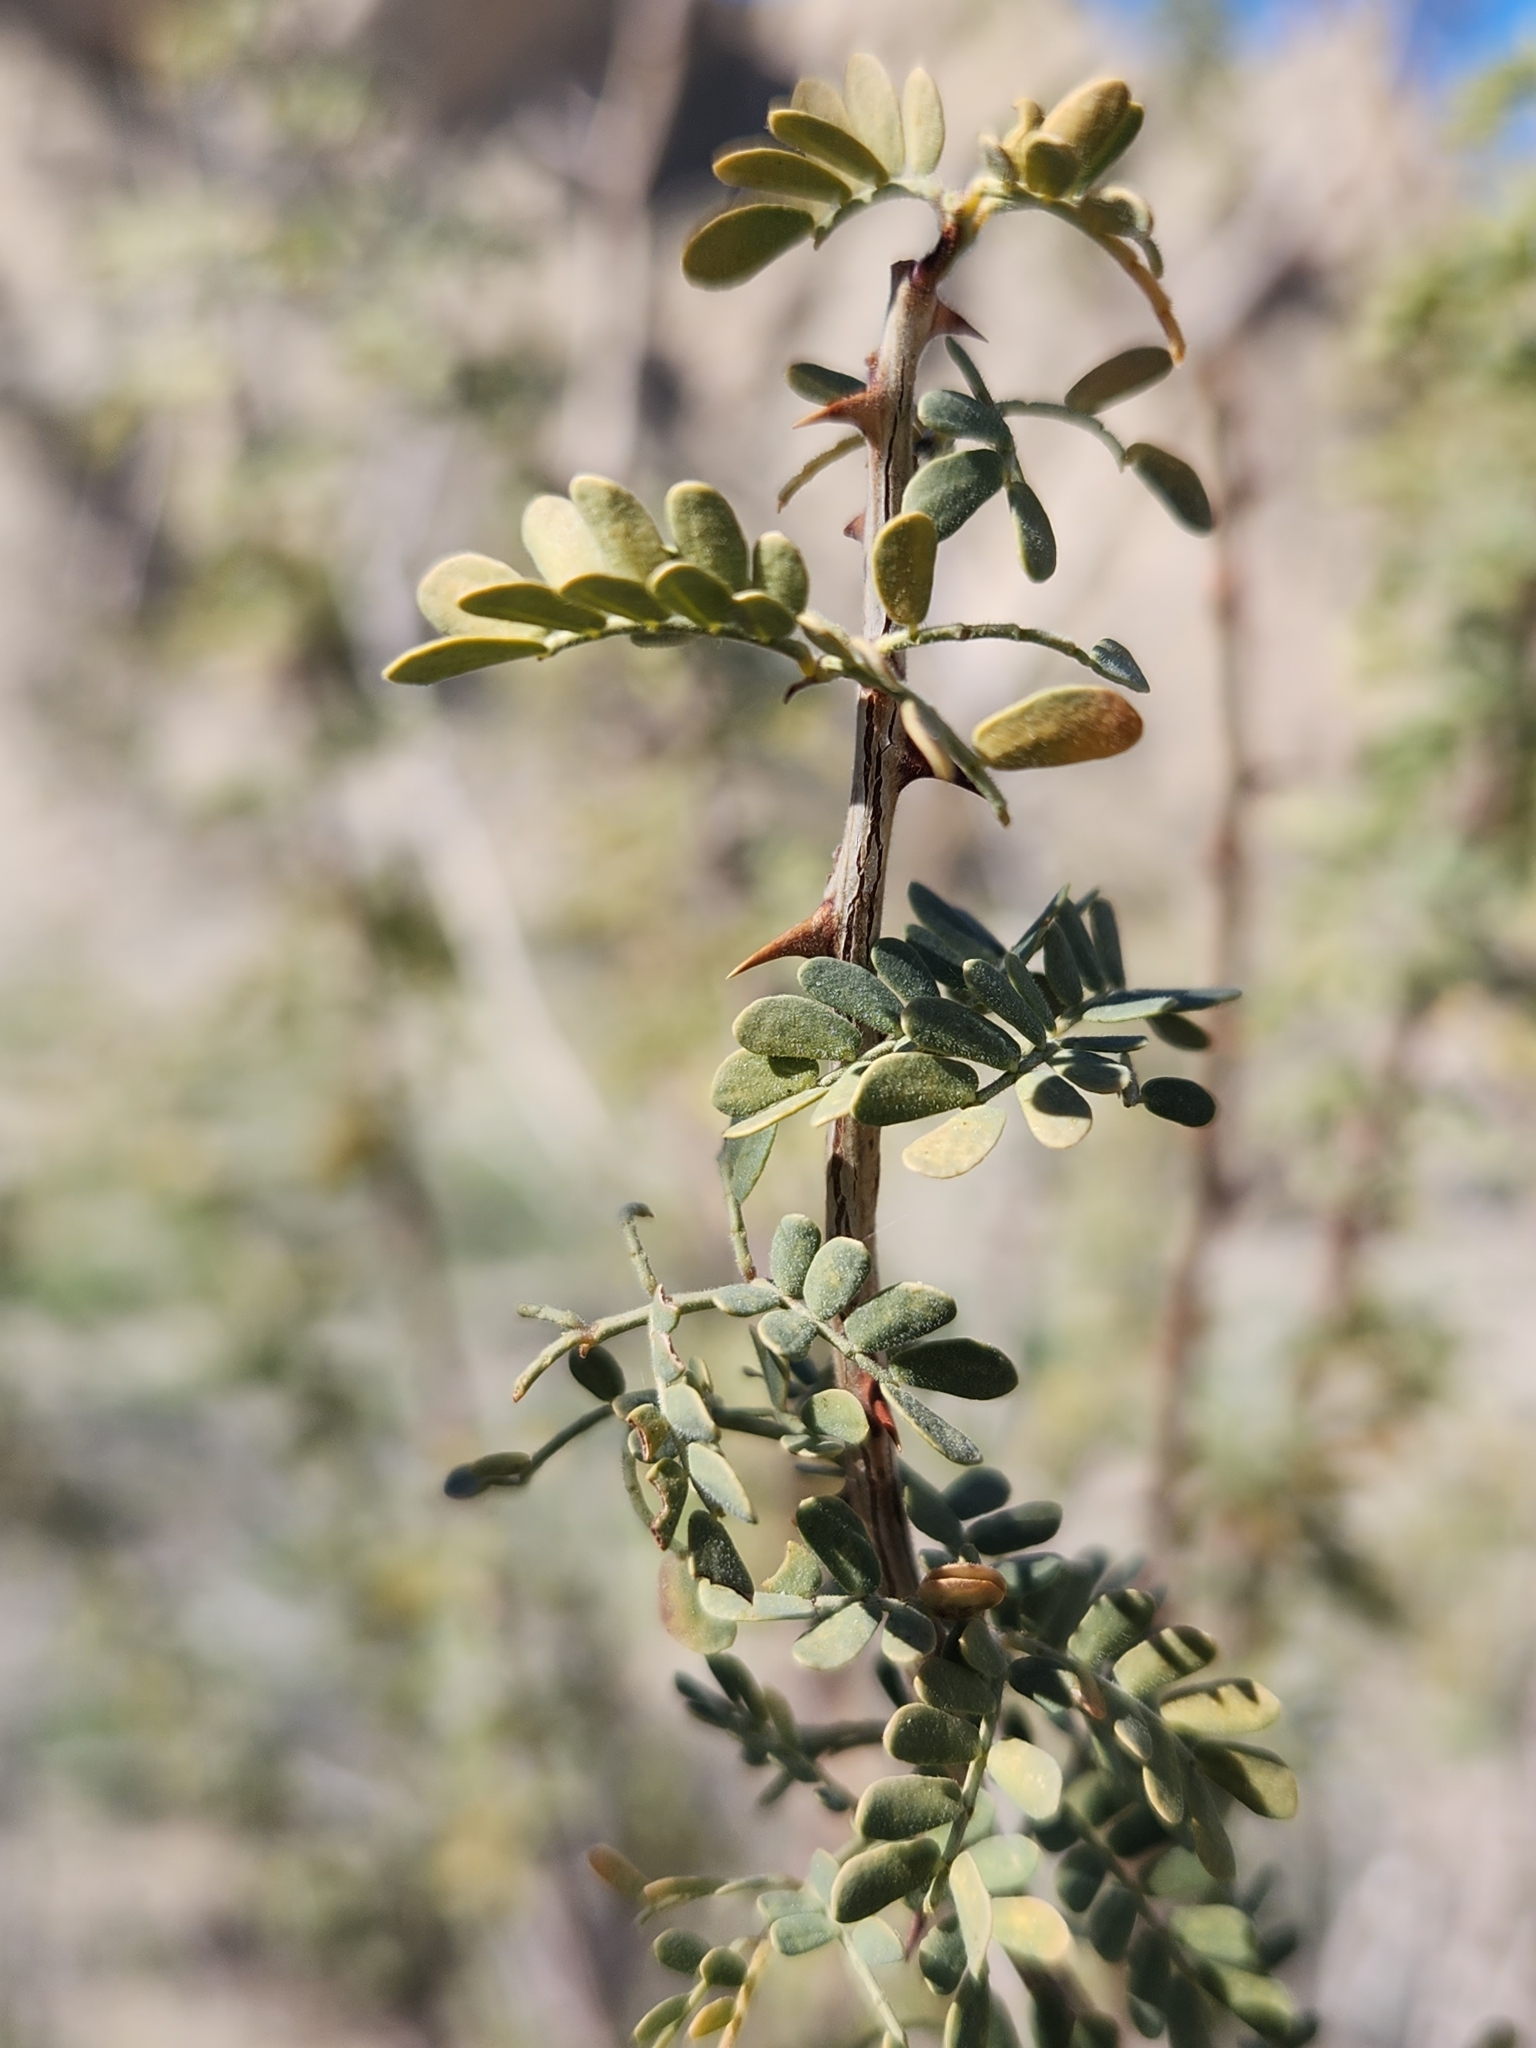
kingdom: Plantae
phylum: Tracheophyta
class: Magnoliopsida
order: Fabales
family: Fabaceae
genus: Senegalia
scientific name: Senegalia greggii
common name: Texas-mimosa
